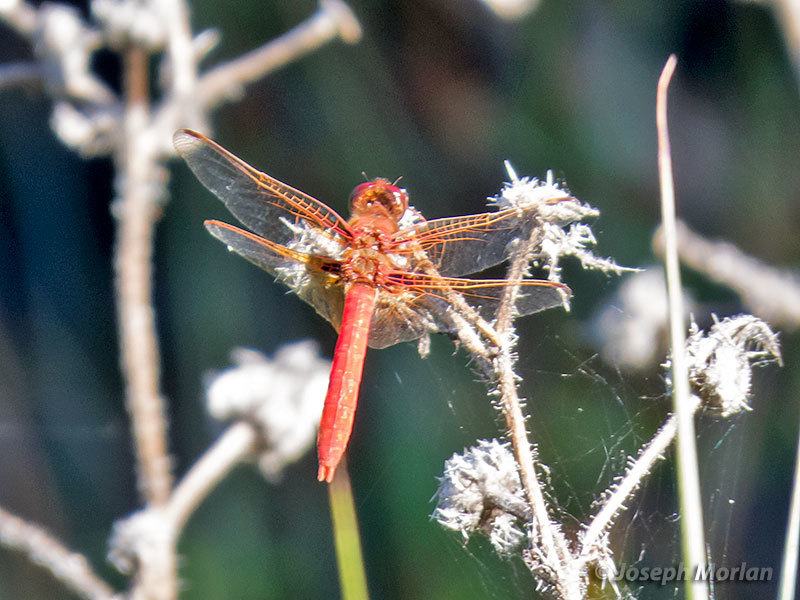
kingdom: Animalia
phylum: Arthropoda
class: Insecta
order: Odonata
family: Libellulidae
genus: Sympetrum
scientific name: Sympetrum illotum
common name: Cardinal meadowhawk
